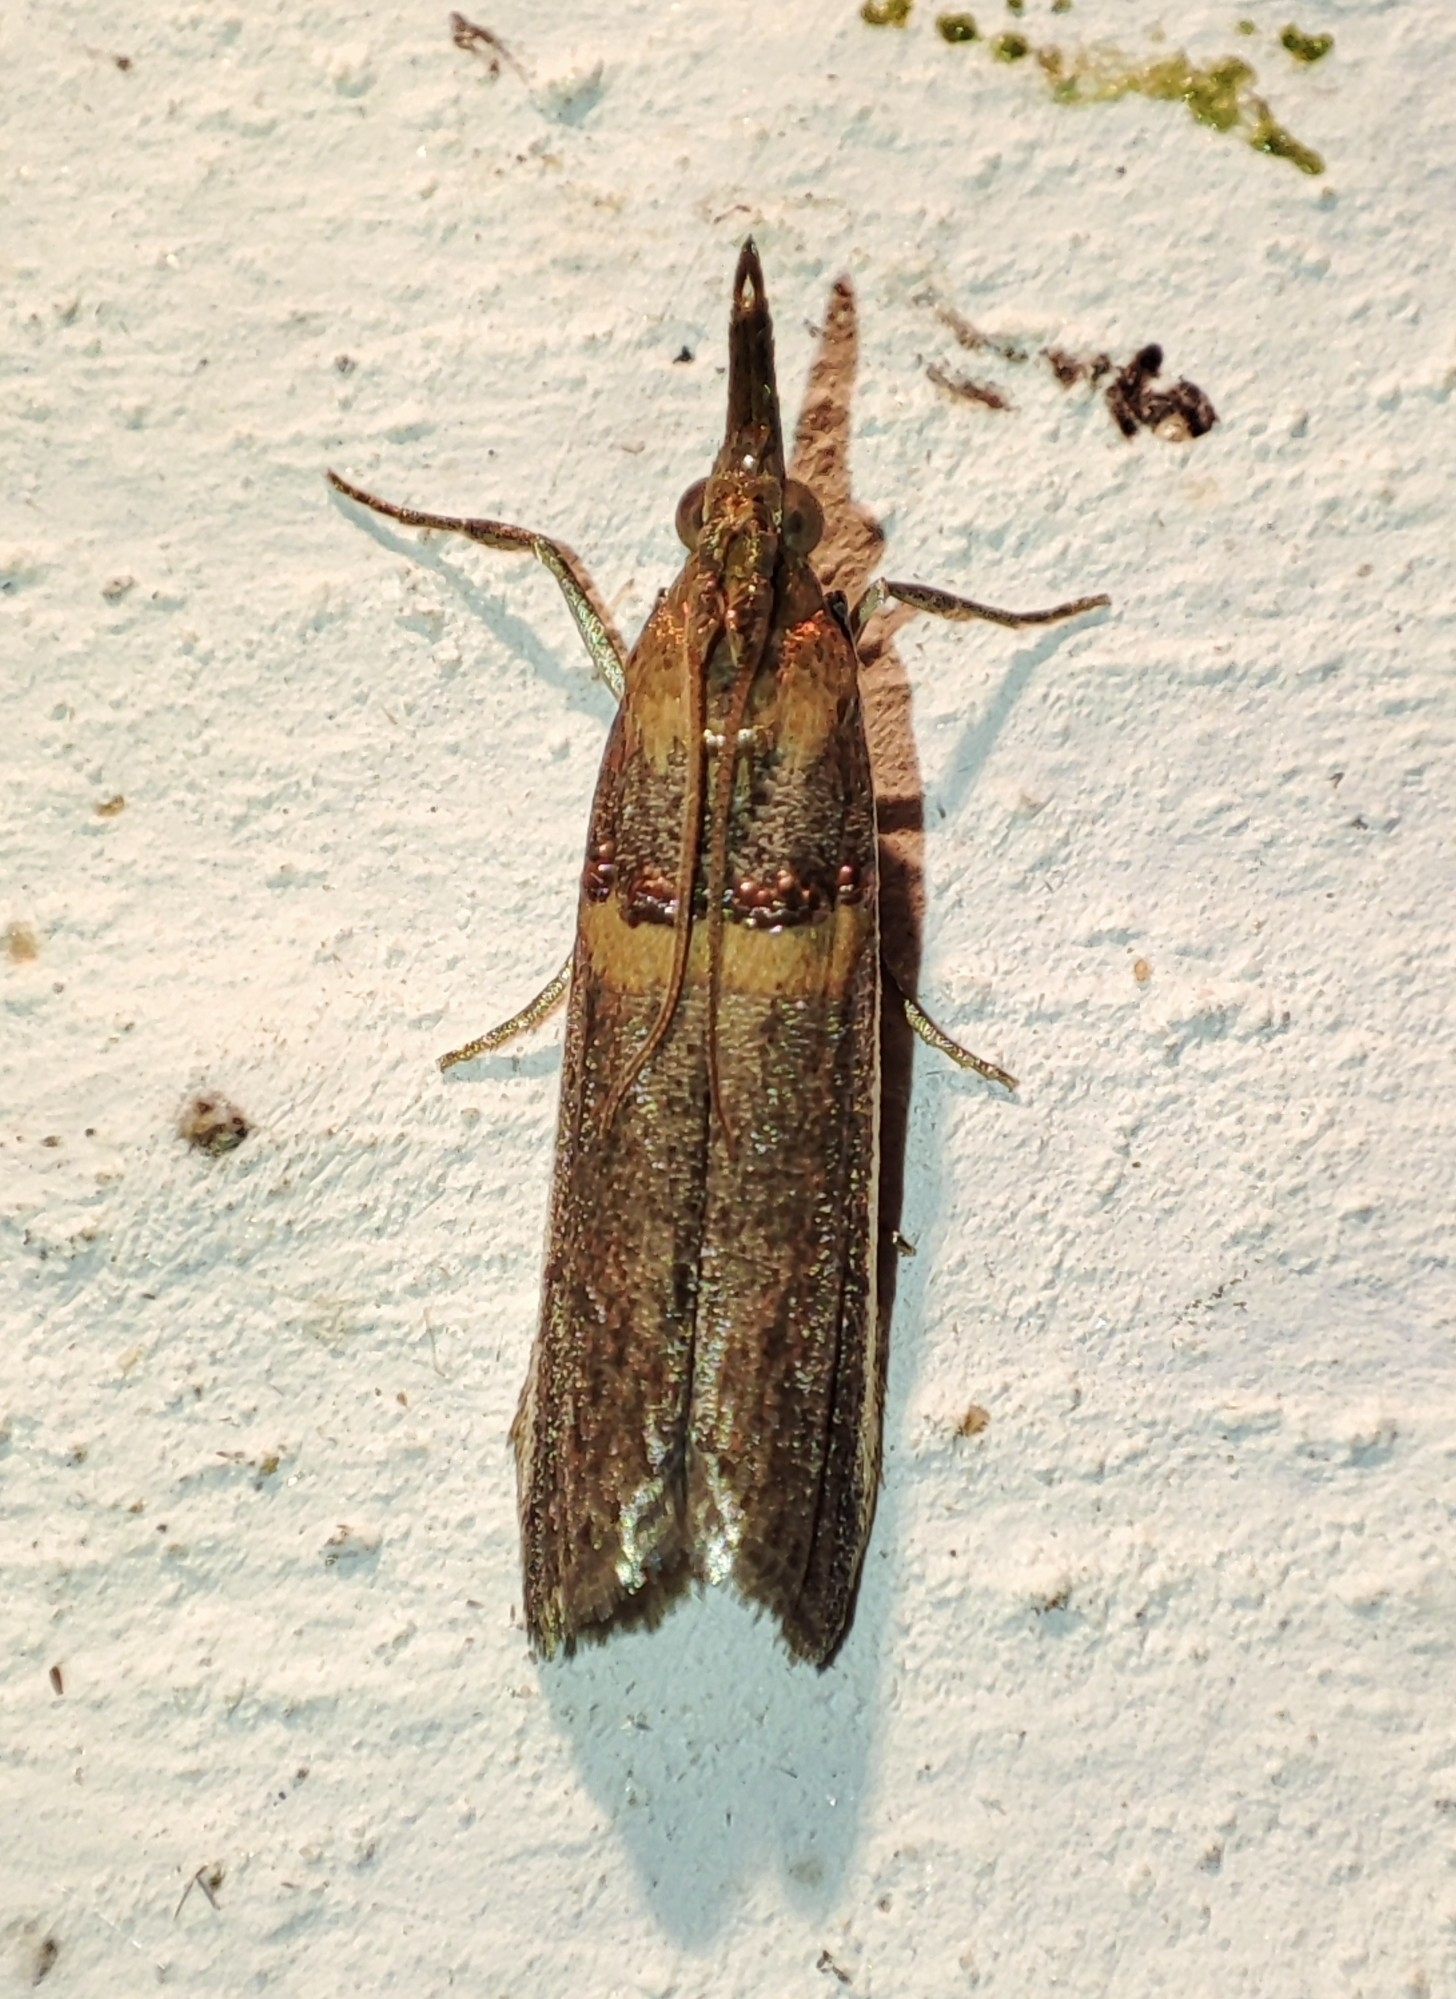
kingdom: Animalia
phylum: Arthropoda
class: Insecta
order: Lepidoptera
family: Pyralidae
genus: Etiella
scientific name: Etiella zinckenella
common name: Gold-banded etiella moth
